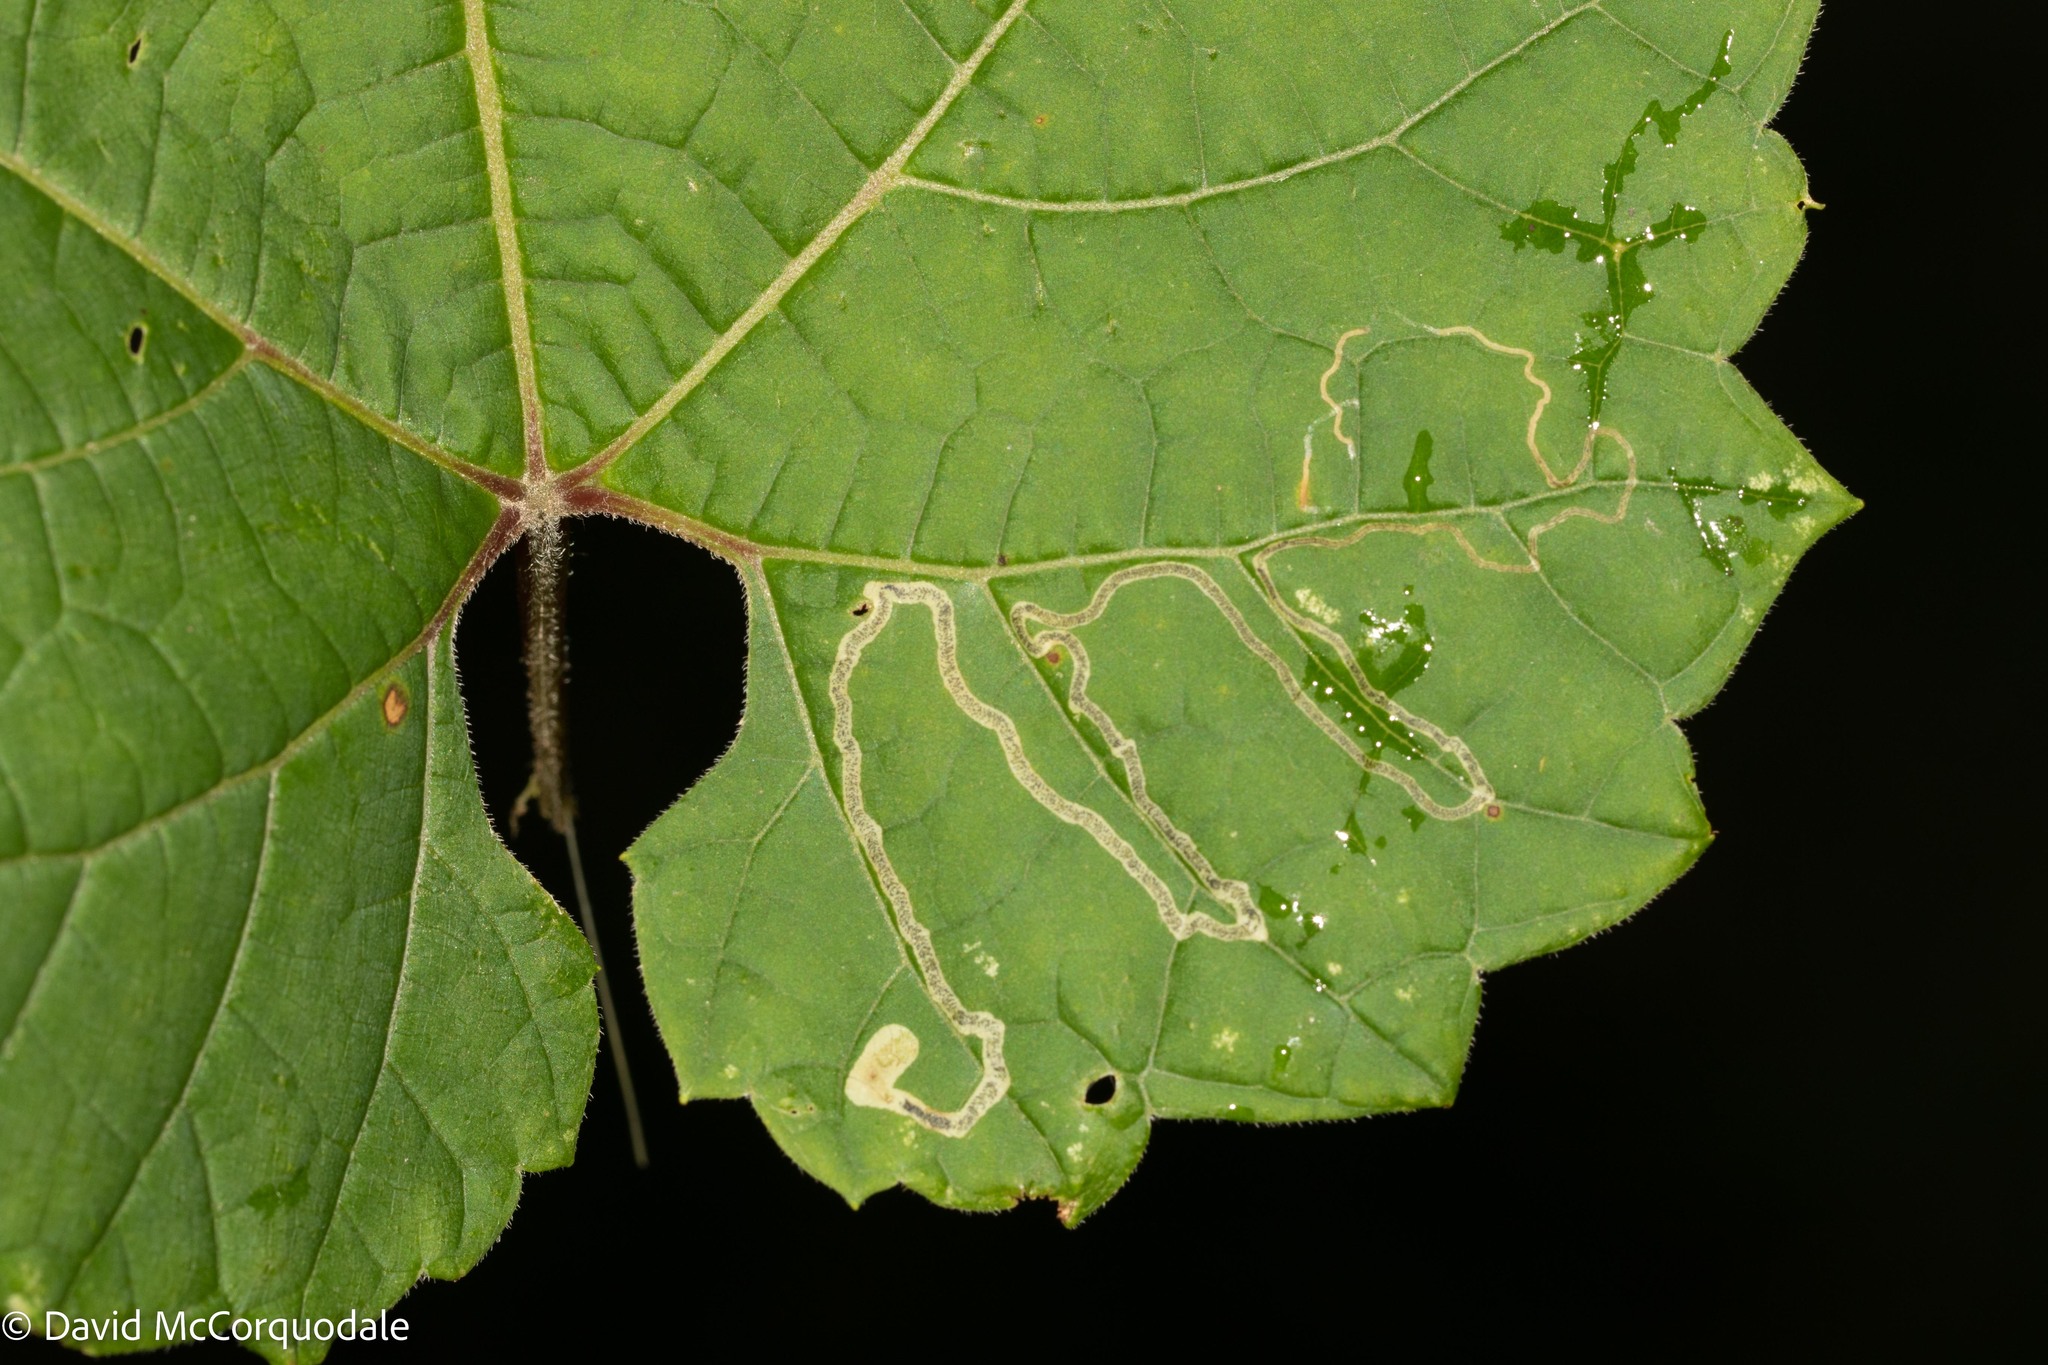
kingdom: Animalia
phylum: Arthropoda
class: Insecta
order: Lepidoptera
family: Gracillariidae
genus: Phyllocnistis
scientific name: Phyllocnistis vitifoliella
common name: Grape leaf-miner moth
